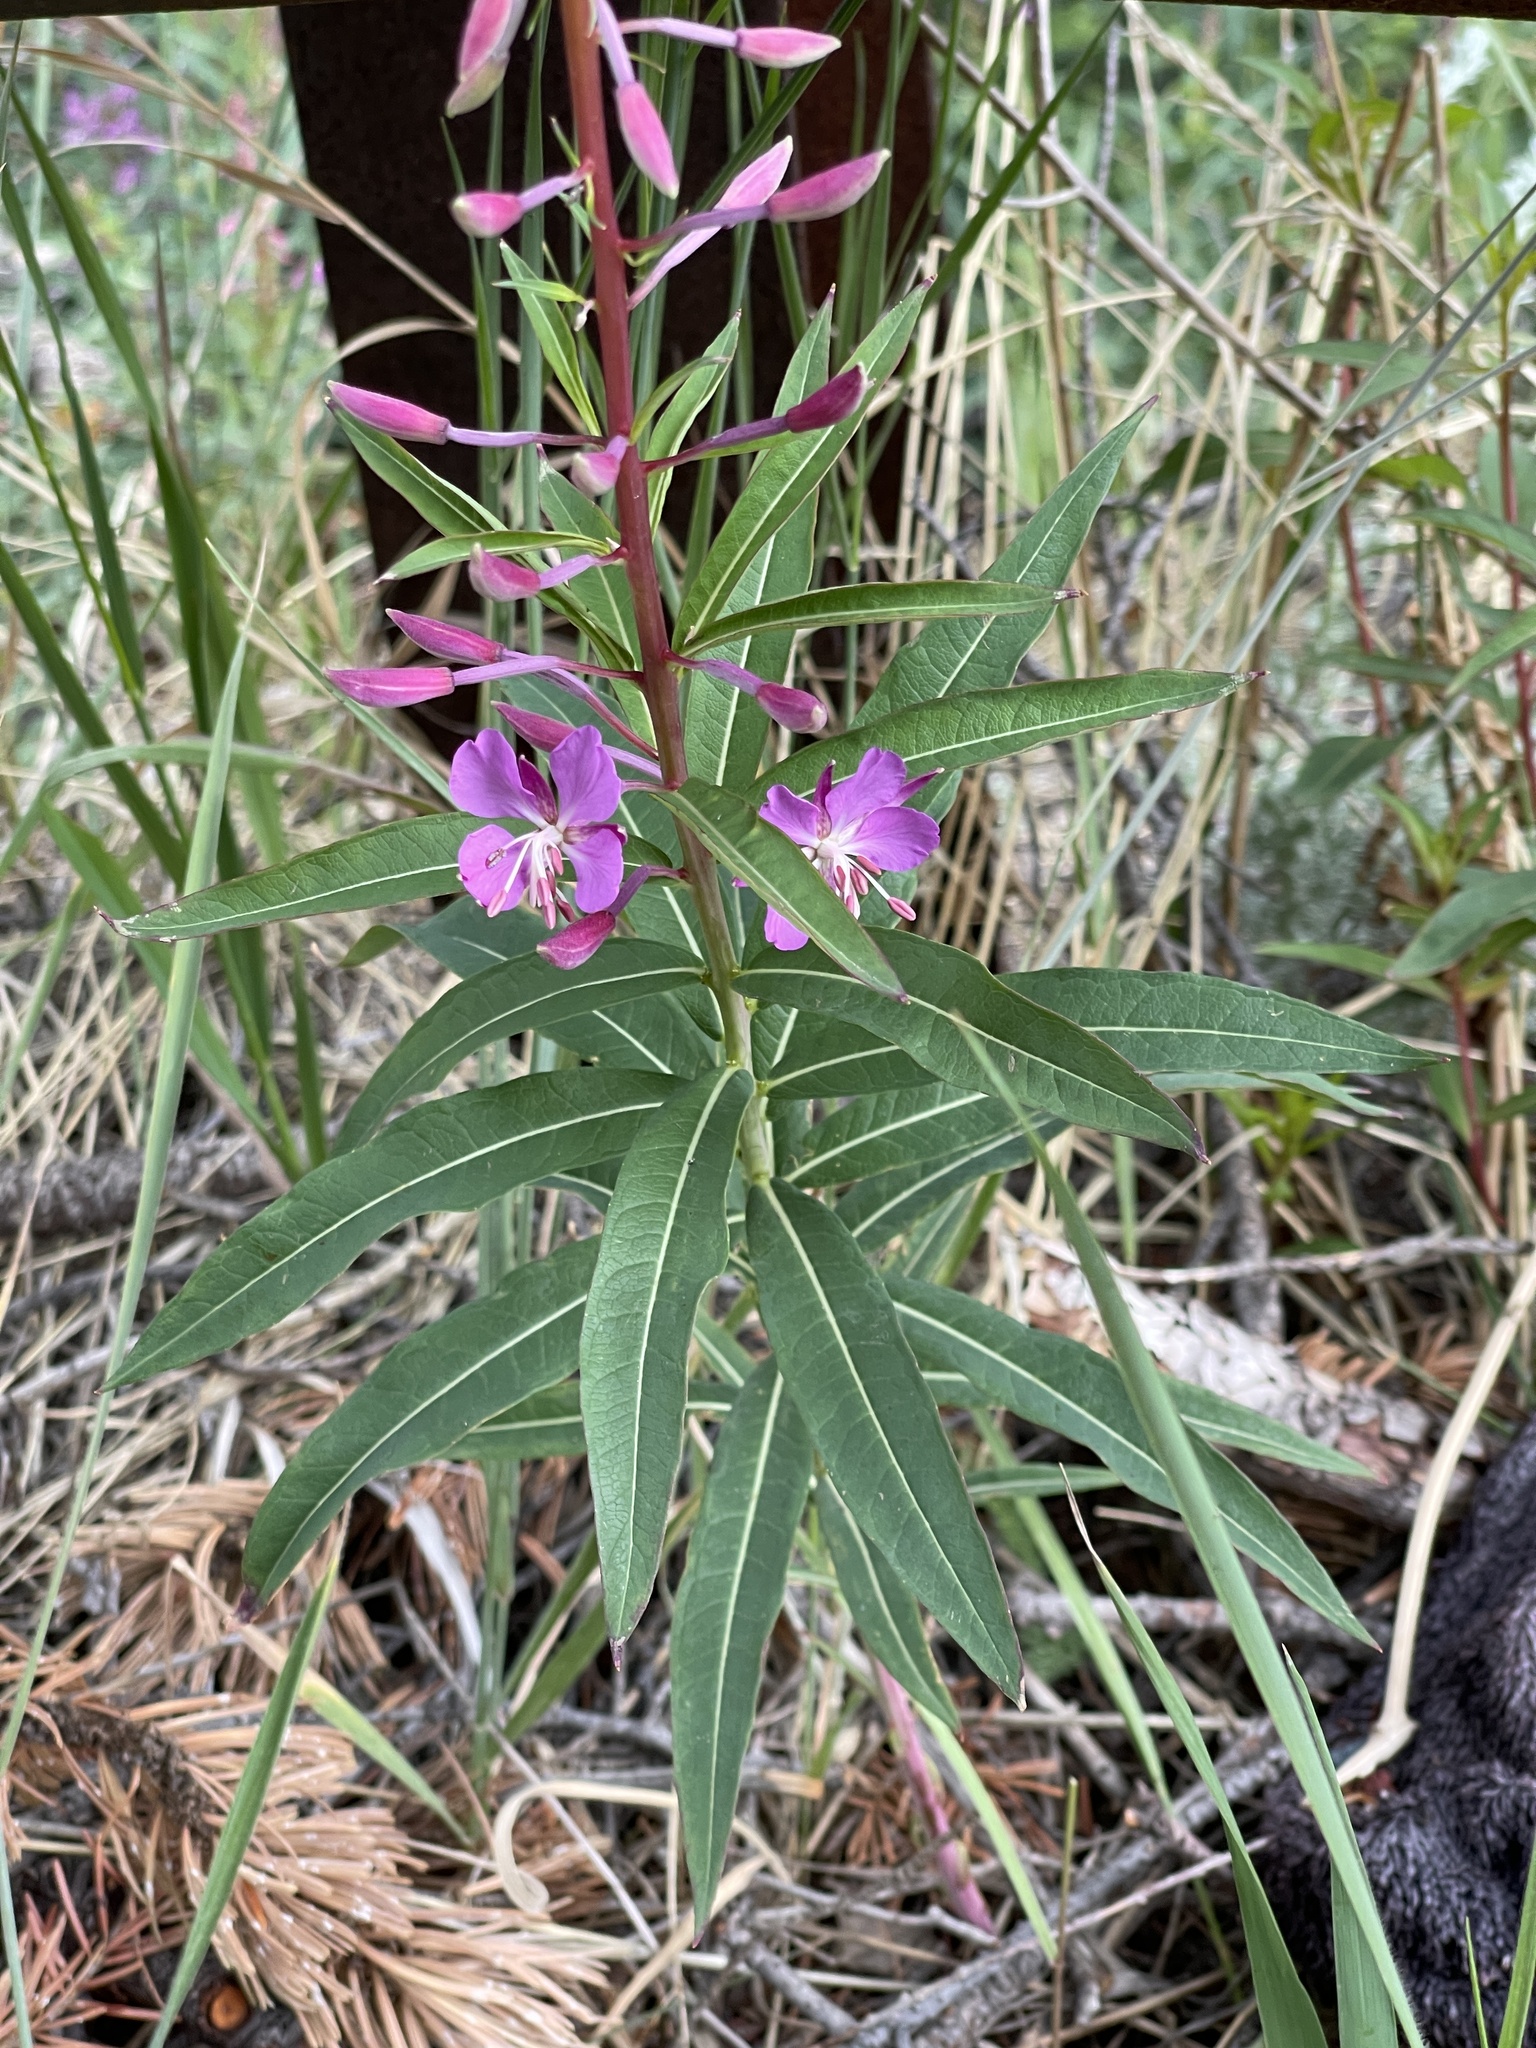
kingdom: Plantae
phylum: Tracheophyta
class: Magnoliopsida
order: Myrtales
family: Onagraceae
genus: Chamaenerion
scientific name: Chamaenerion angustifolium
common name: Fireweed
